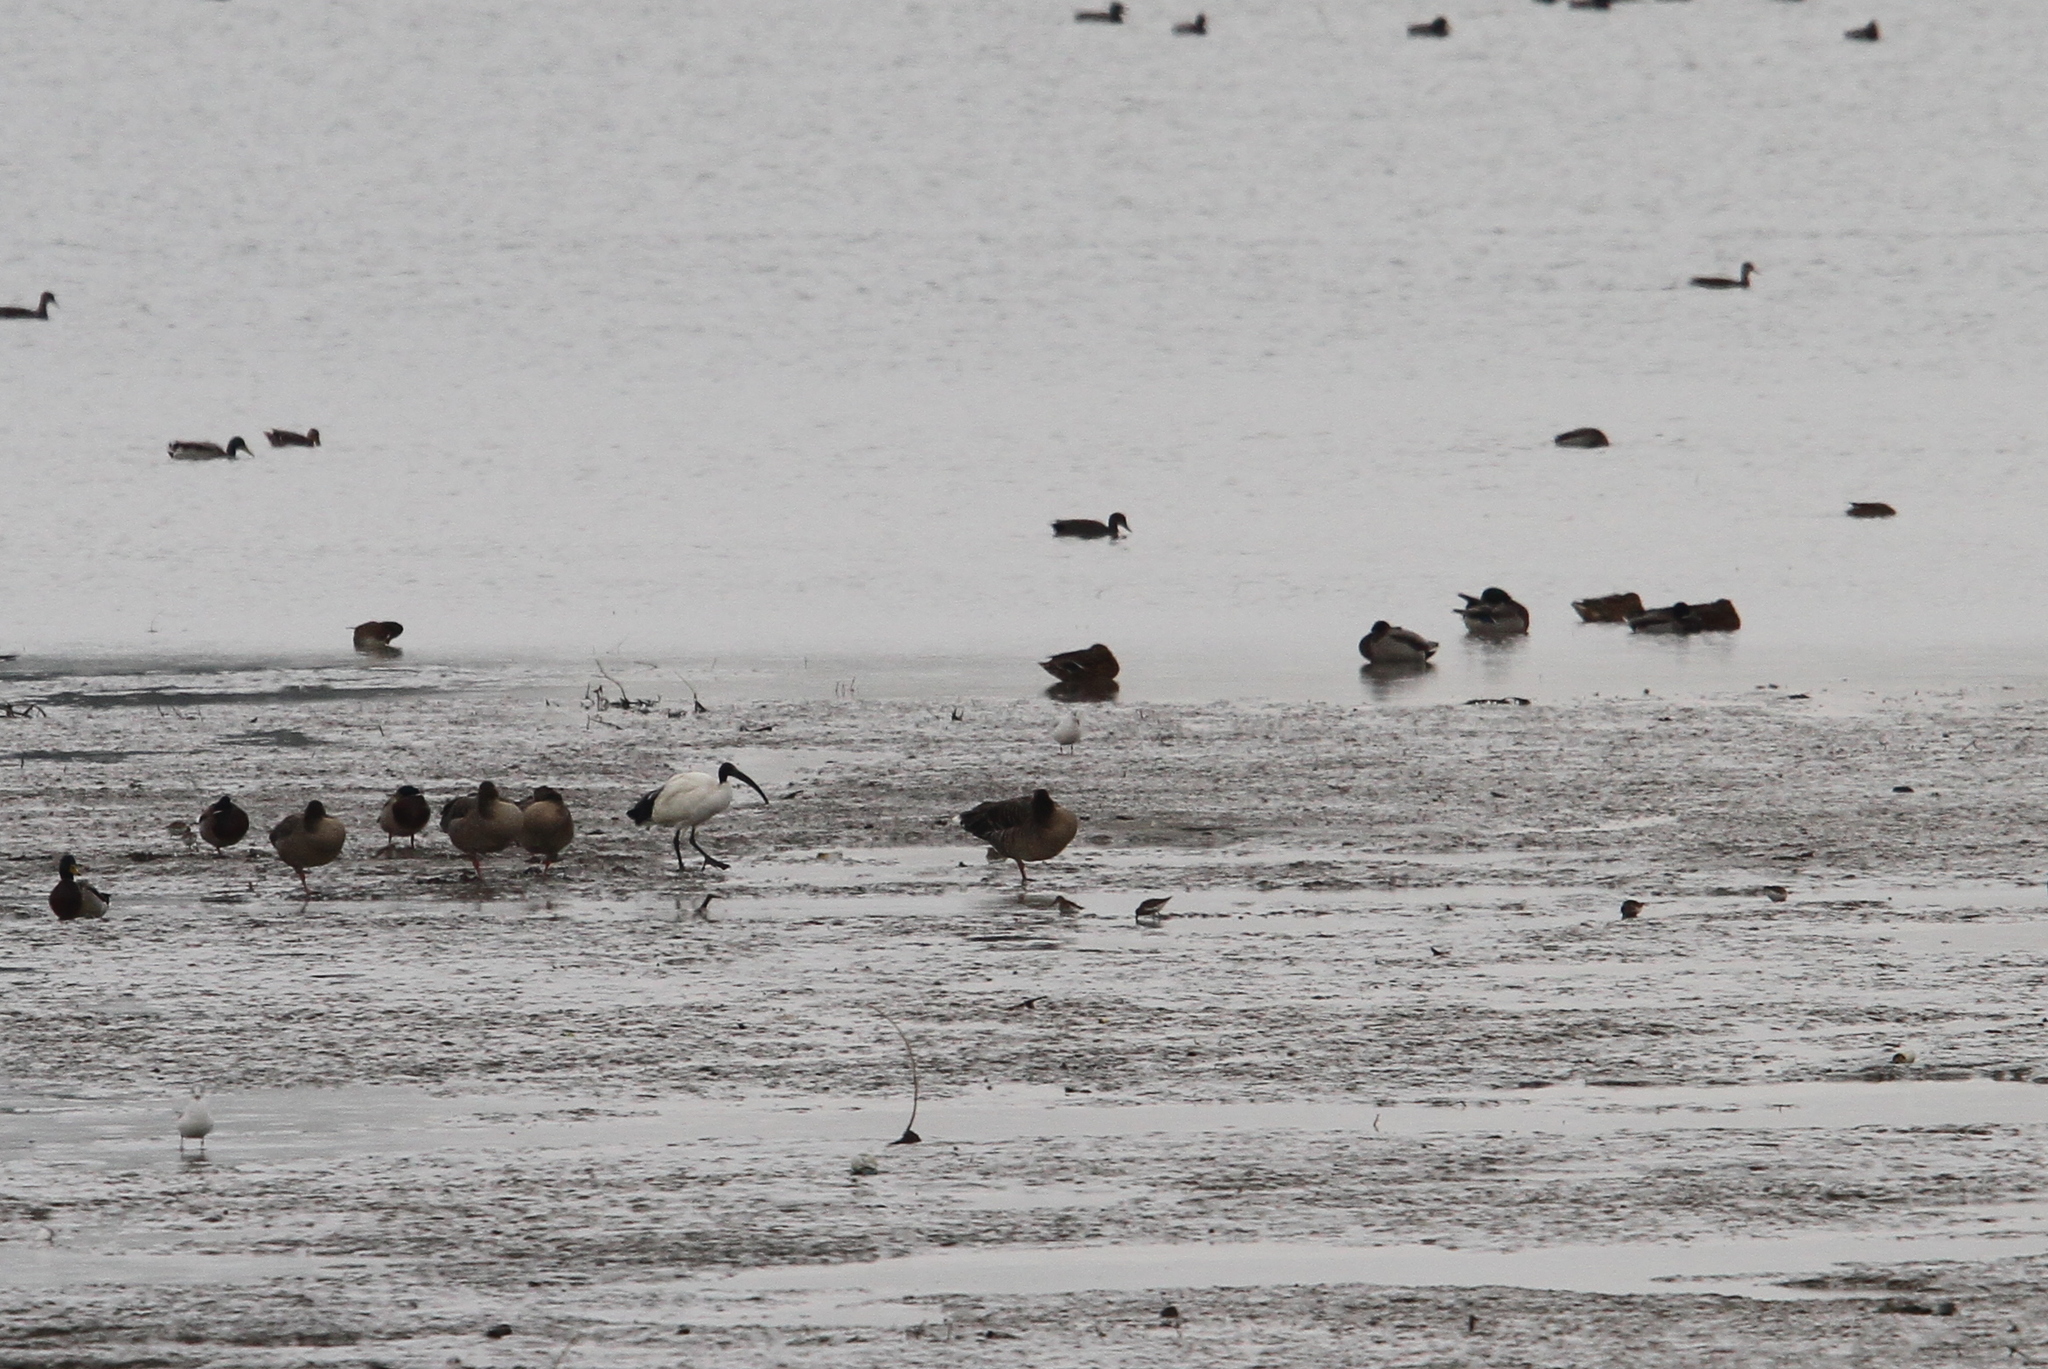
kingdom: Animalia
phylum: Chordata
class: Aves
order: Pelecaniformes
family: Threskiornithidae
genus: Threskiornis
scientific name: Threskiornis aethiopicus
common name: Sacred ibis
